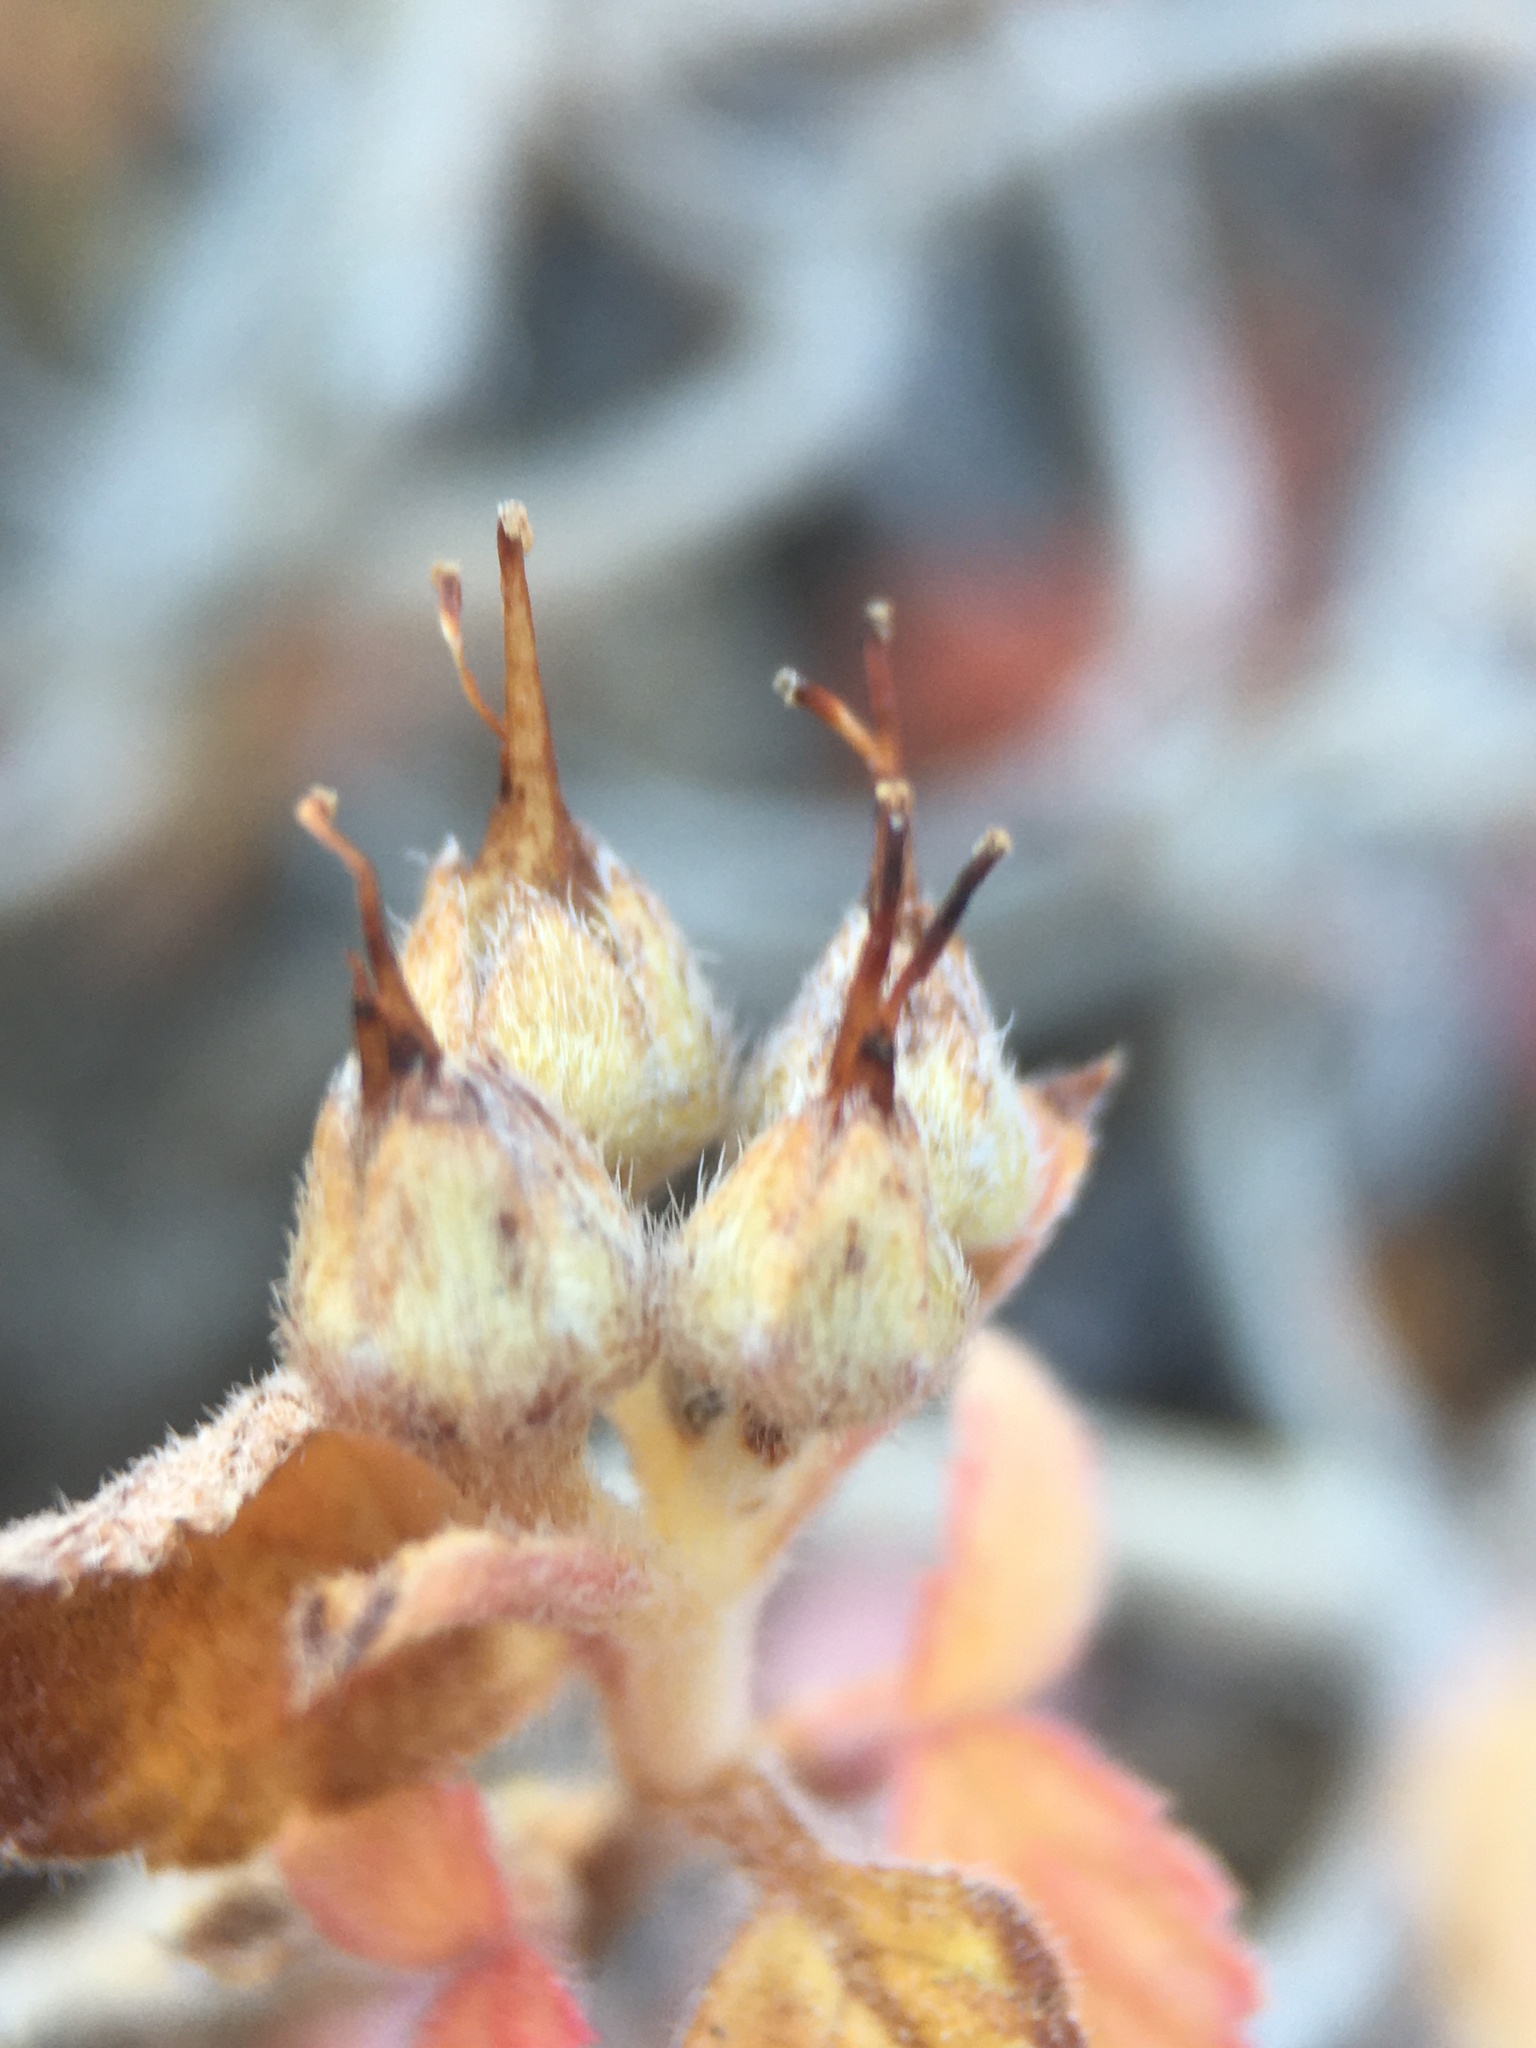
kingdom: Plantae
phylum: Tracheophyta
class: Magnoliopsida
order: Cornales
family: Hydrangeaceae
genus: Jamesia
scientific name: Jamesia americana
